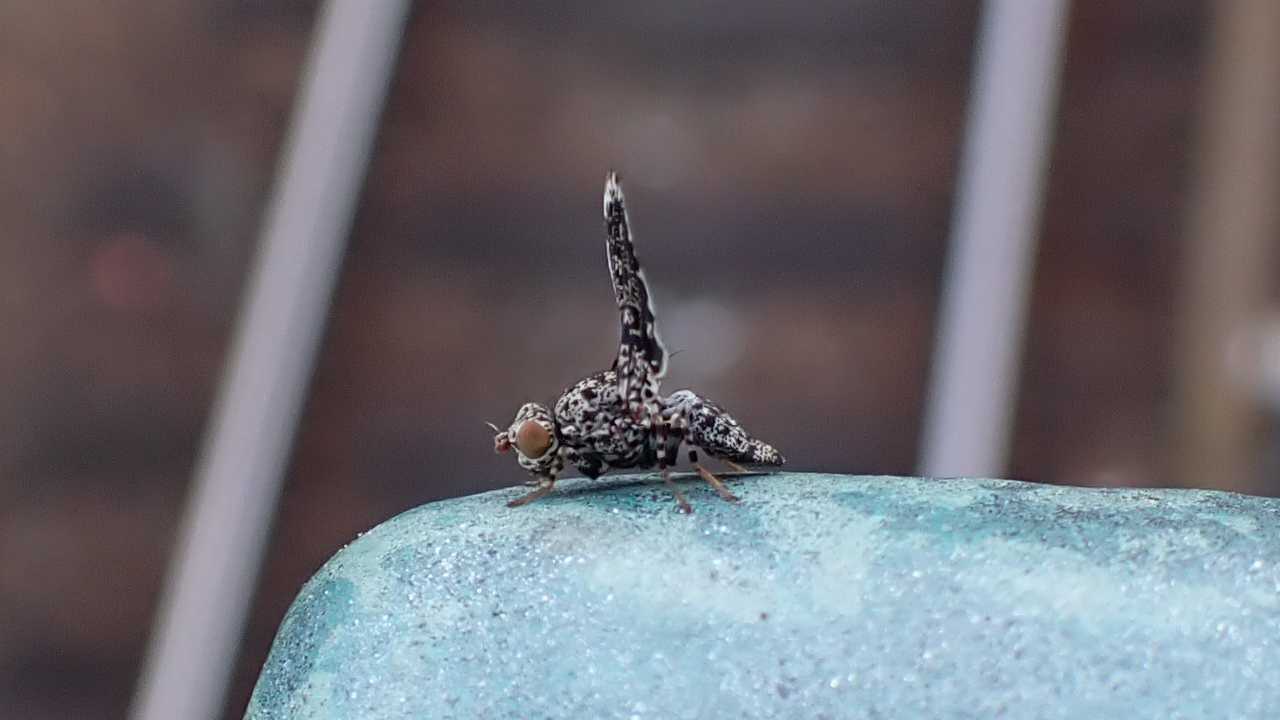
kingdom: Animalia
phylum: Arthropoda
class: Insecta
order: Diptera
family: Ulidiidae
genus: Callopistromyia
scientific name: Callopistromyia annulipes
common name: Peacock fly
